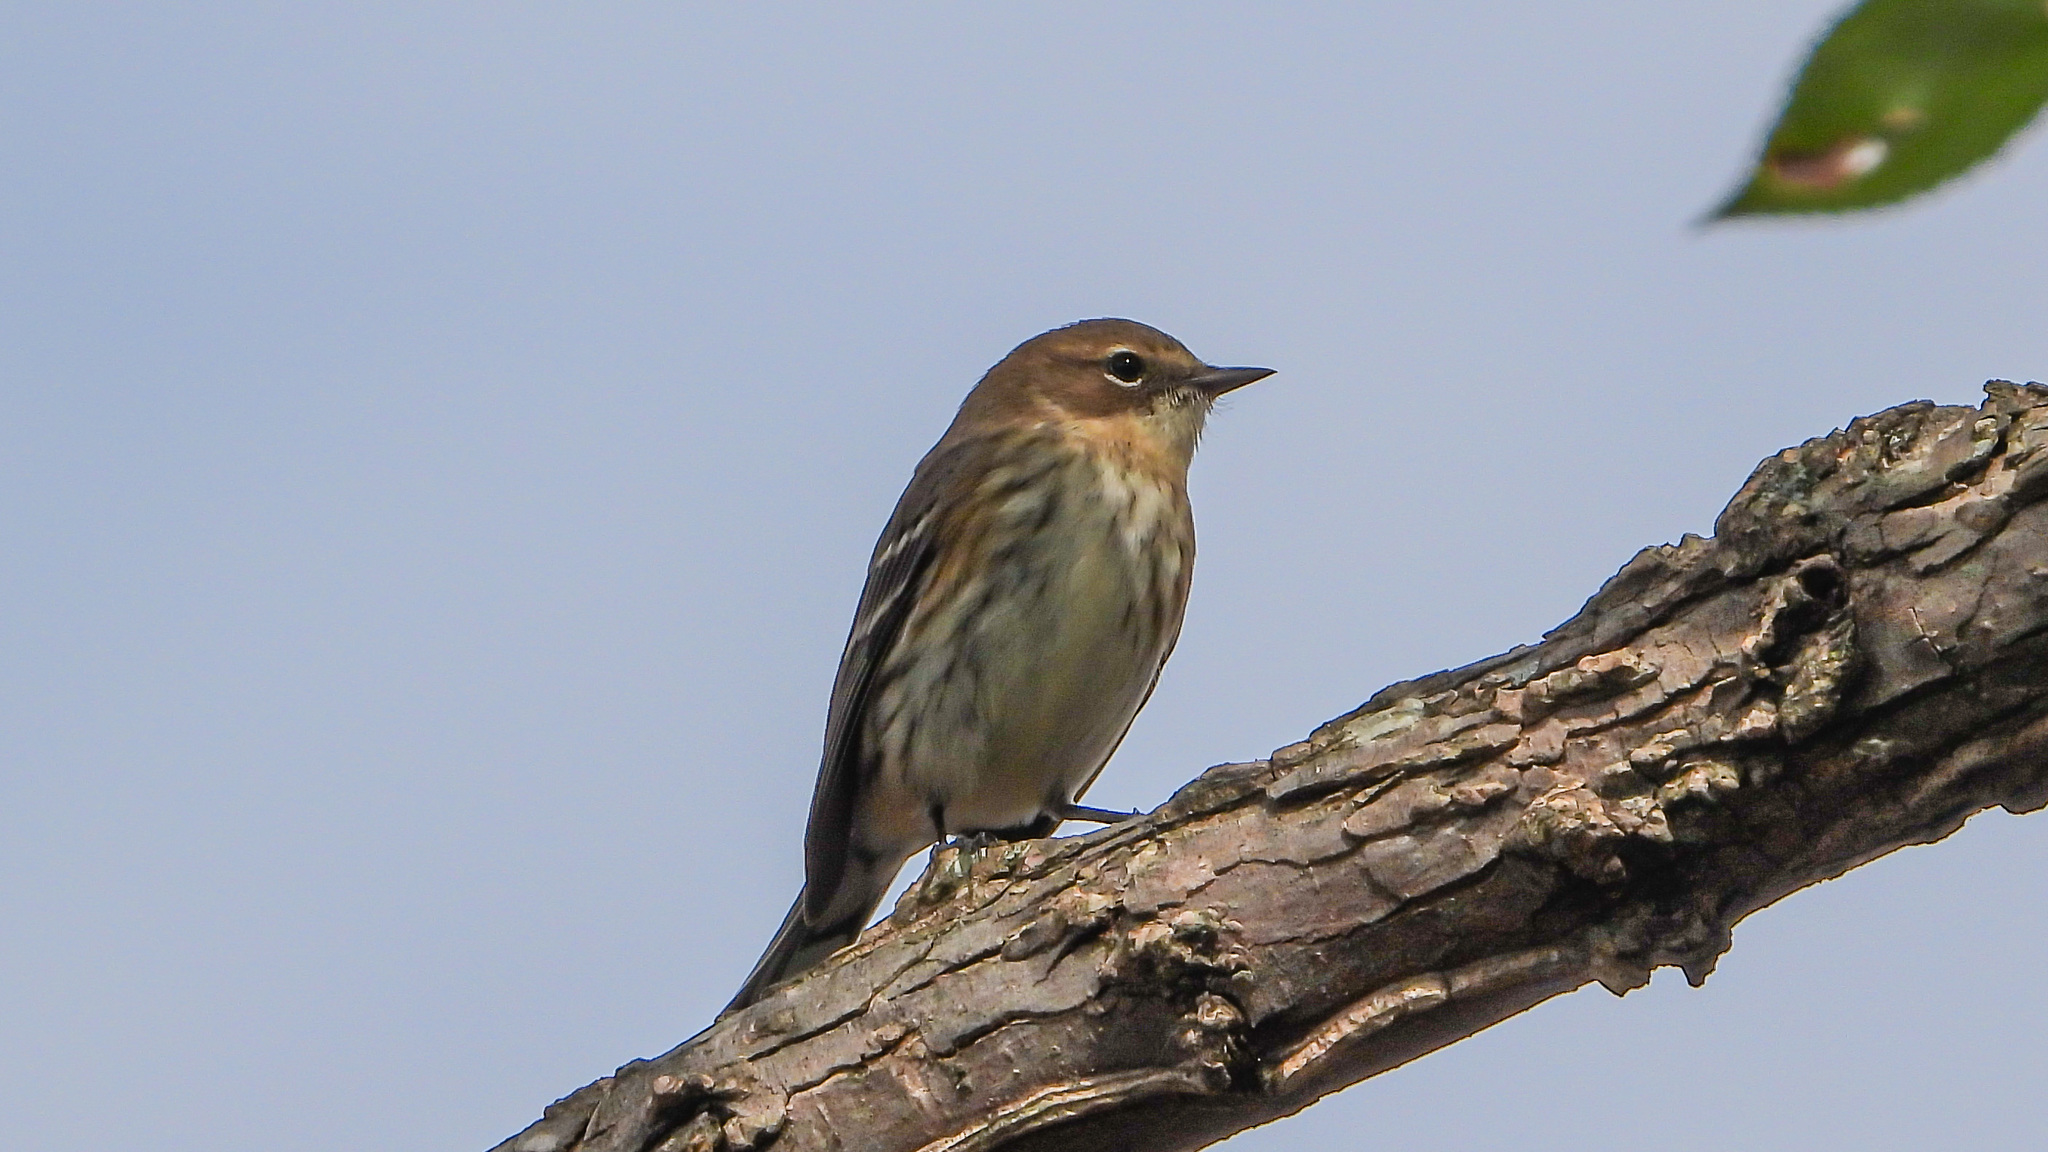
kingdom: Animalia
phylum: Chordata
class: Aves
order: Passeriformes
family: Parulidae
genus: Setophaga
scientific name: Setophaga coronata
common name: Myrtle warbler
